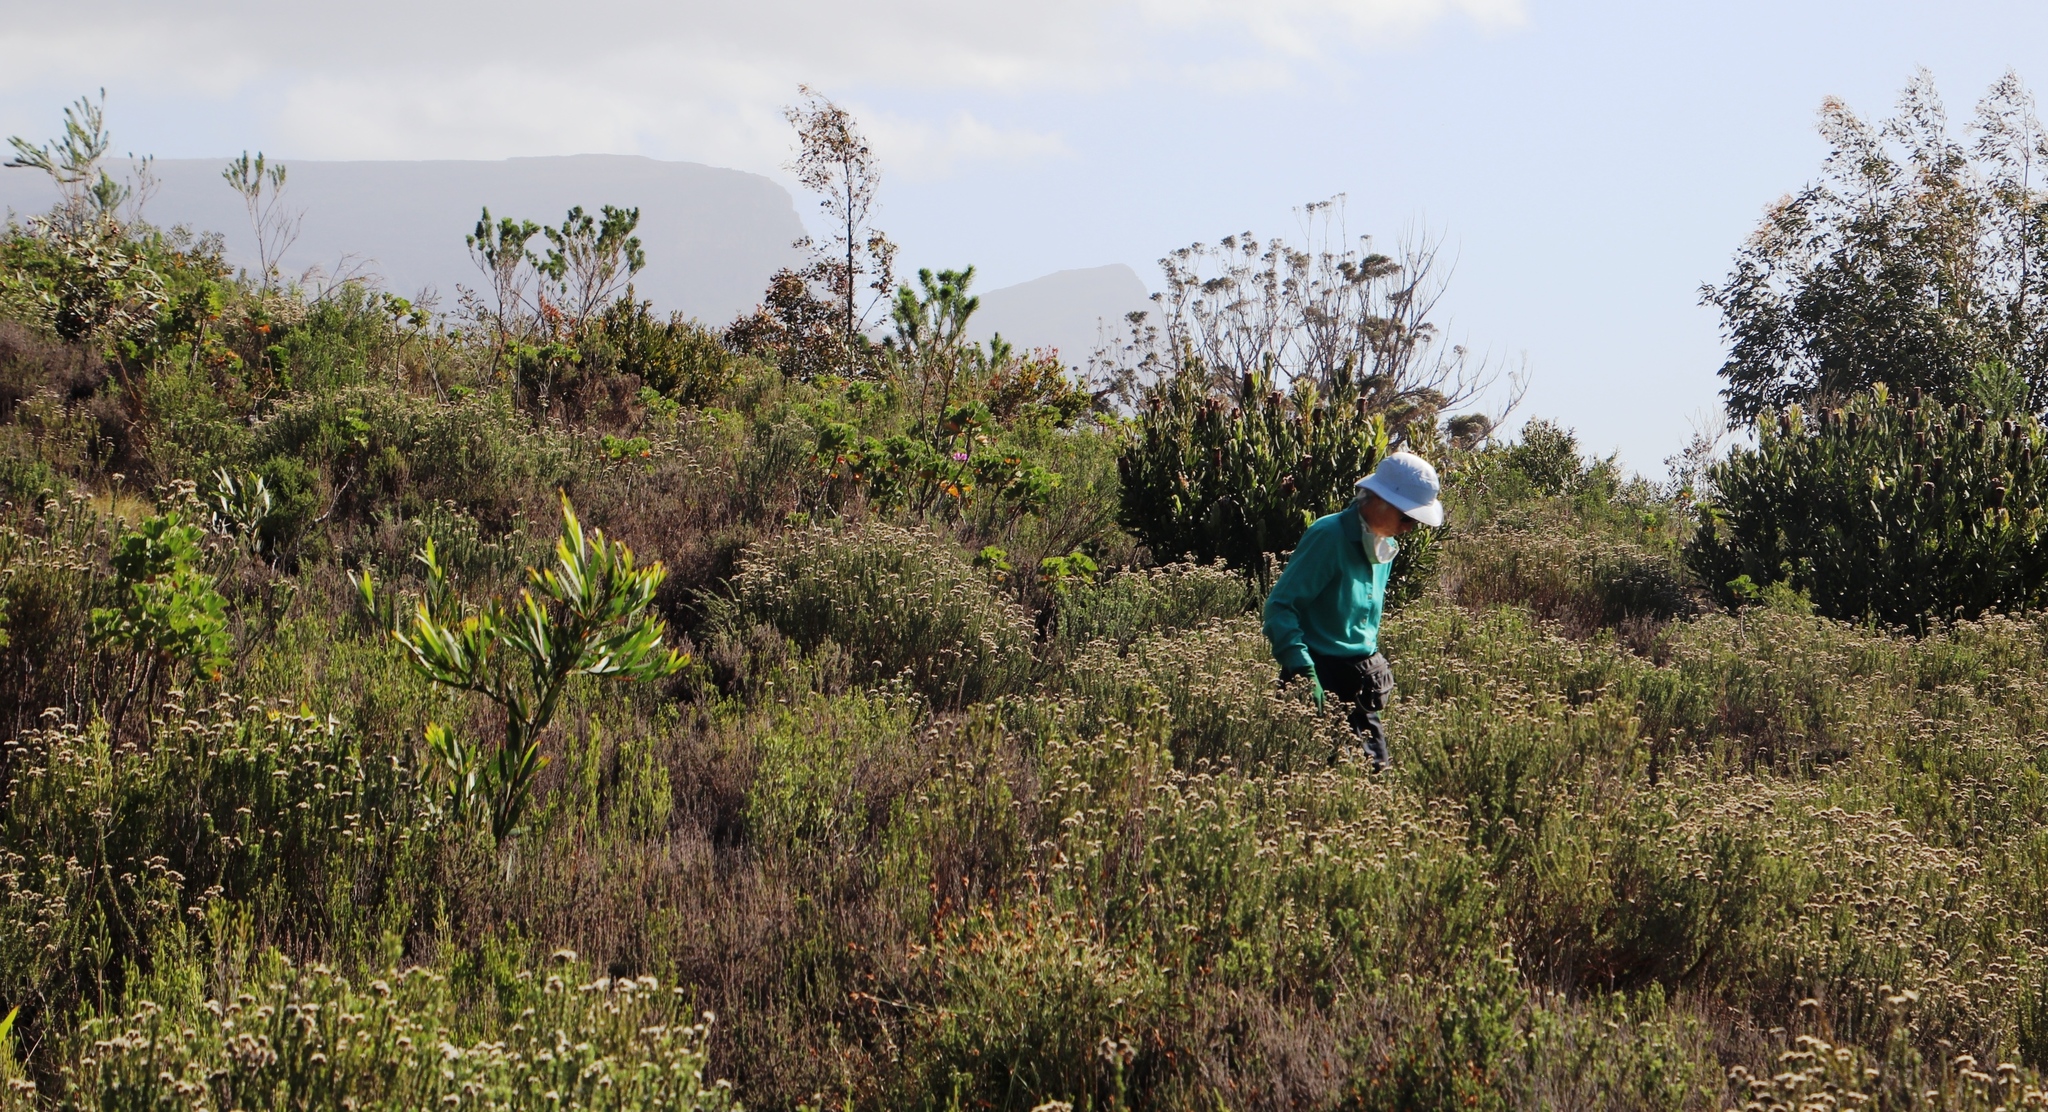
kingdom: Plantae
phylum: Tracheophyta
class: Magnoliopsida
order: Asterales
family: Asteraceae
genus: Metalasia
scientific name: Metalasia densa
